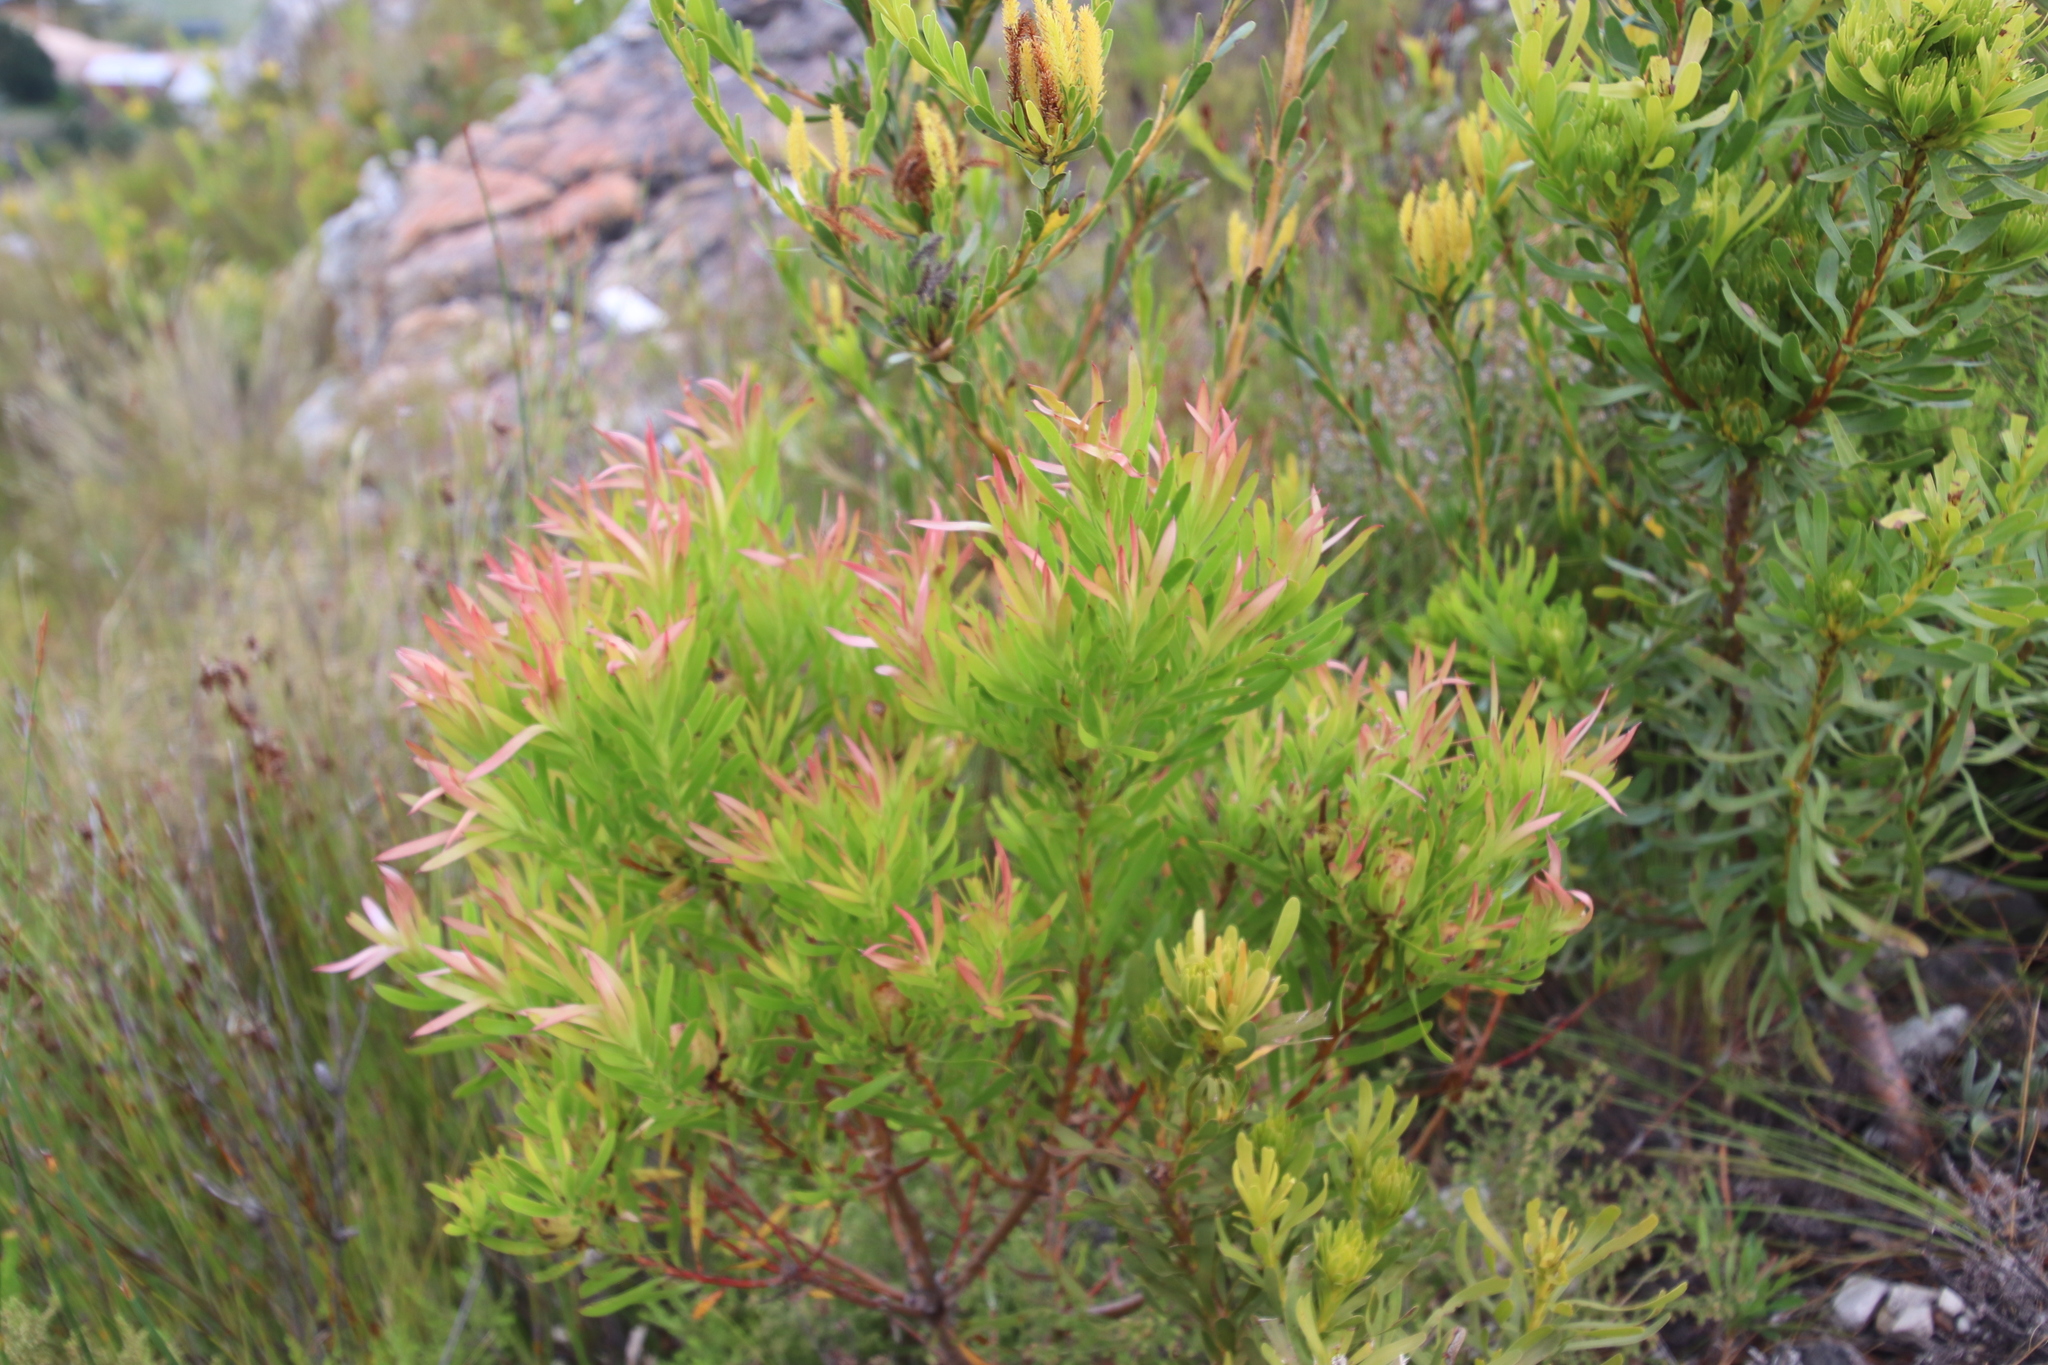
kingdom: Plantae
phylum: Tracheophyta
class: Magnoliopsida
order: Proteales
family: Proteaceae
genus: Leucadendron
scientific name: Leucadendron xanthoconus
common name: Sickle-leaf conebush
